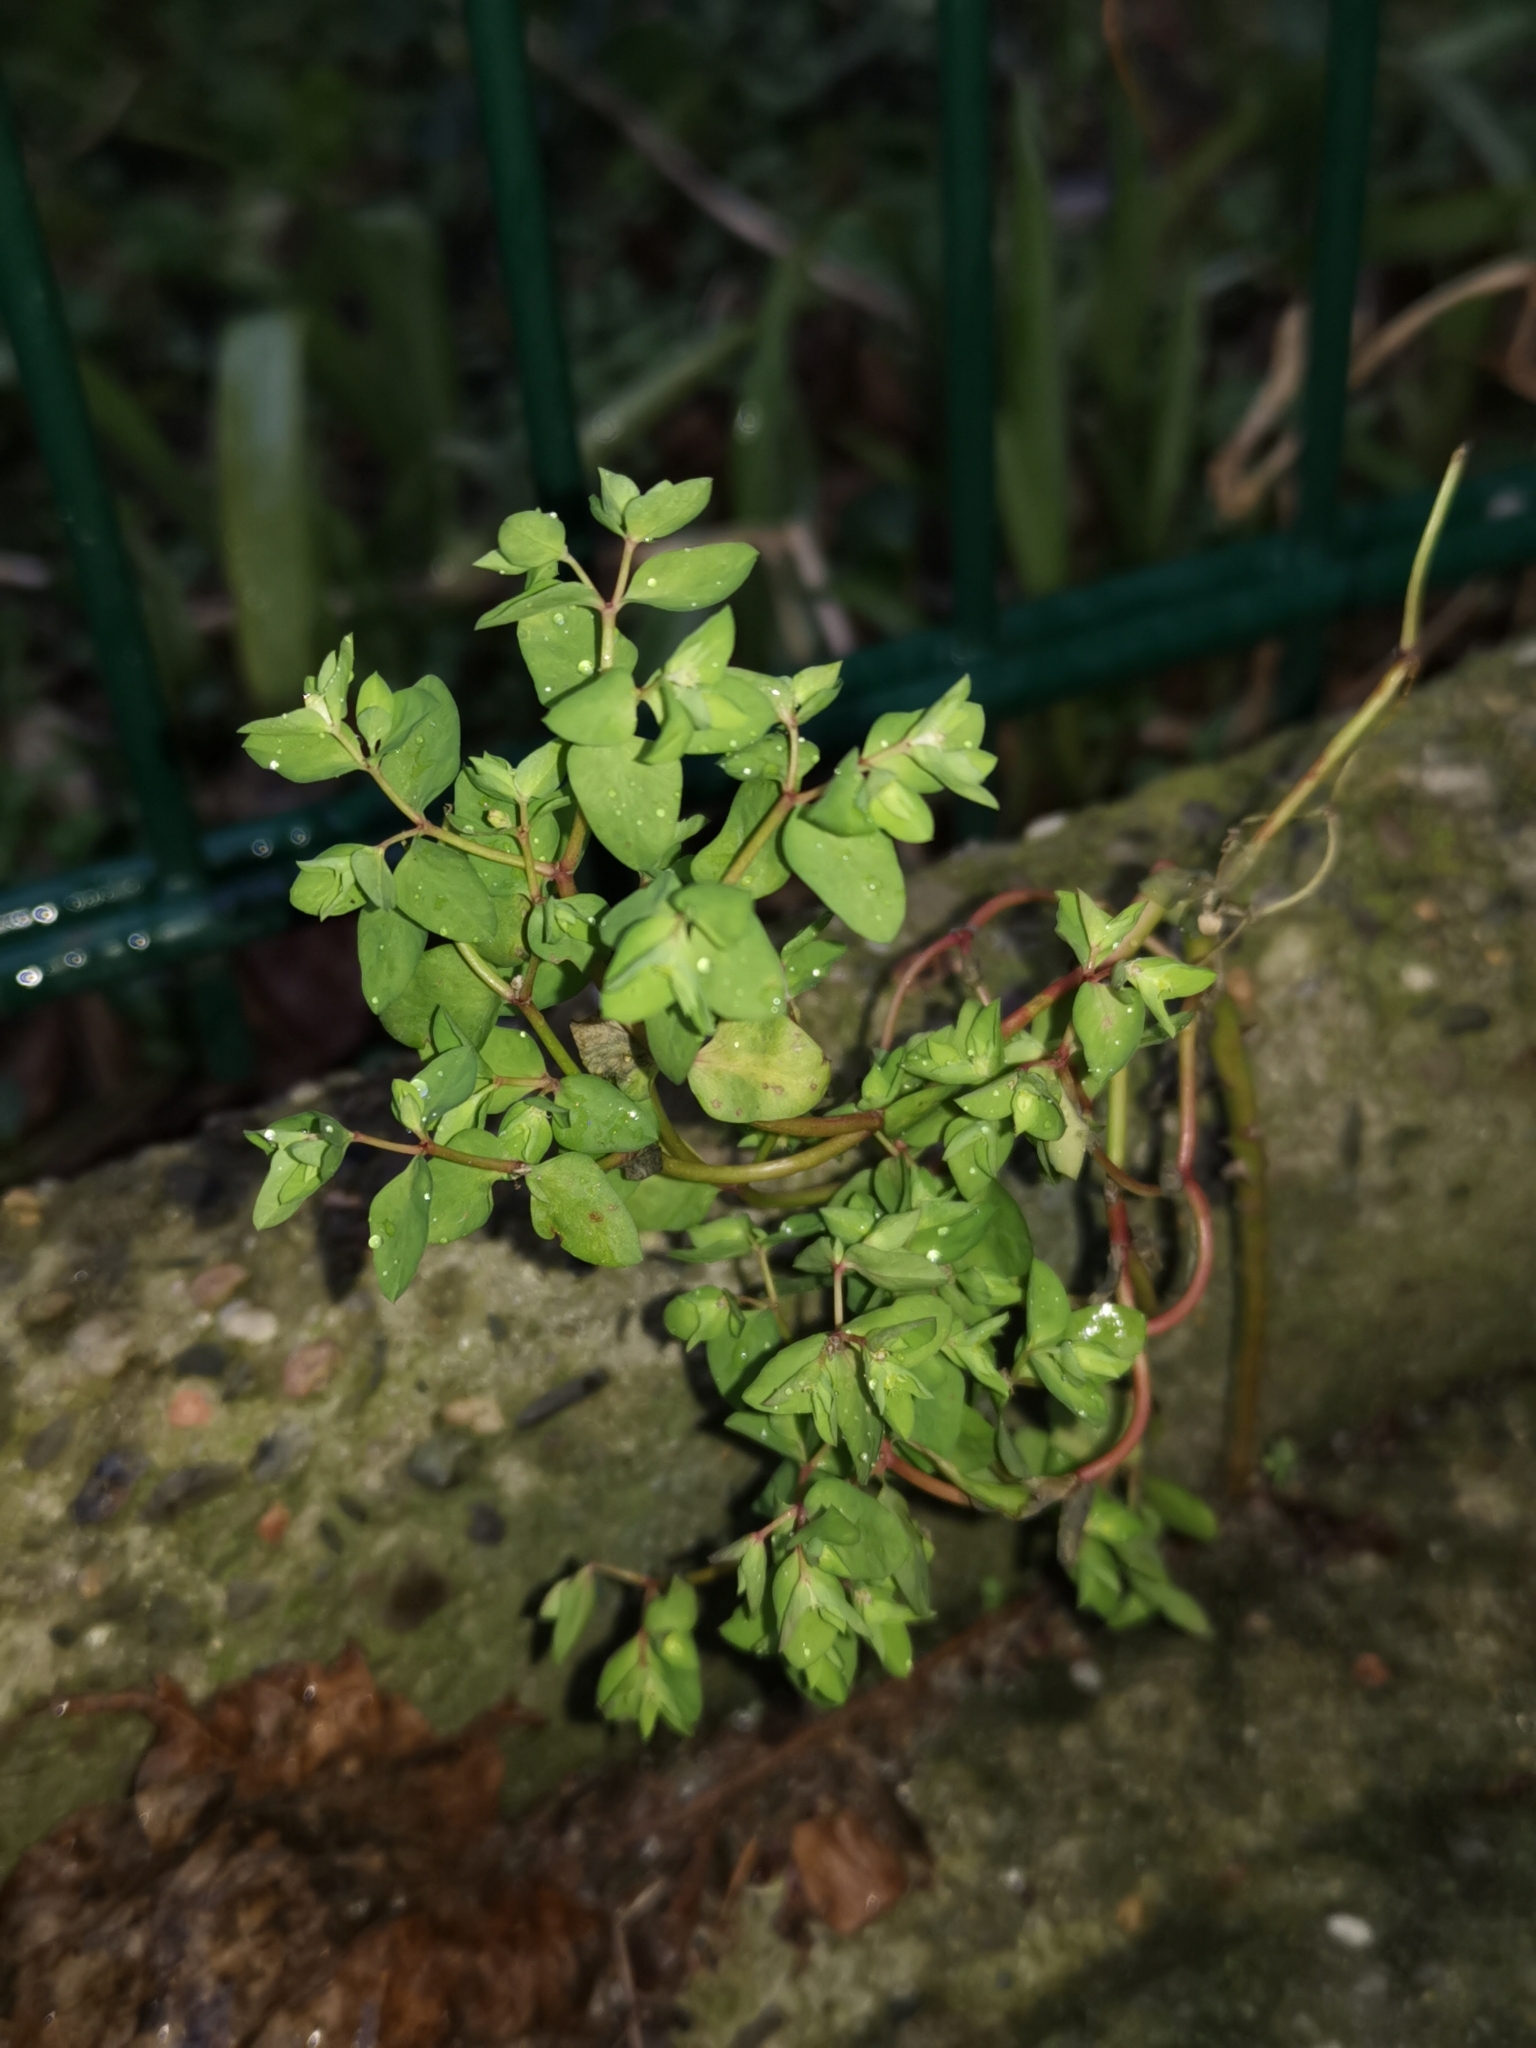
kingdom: Plantae
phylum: Tracheophyta
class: Magnoliopsida
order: Malpighiales
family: Euphorbiaceae
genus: Euphorbia
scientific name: Euphorbia peplus
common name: Petty spurge
